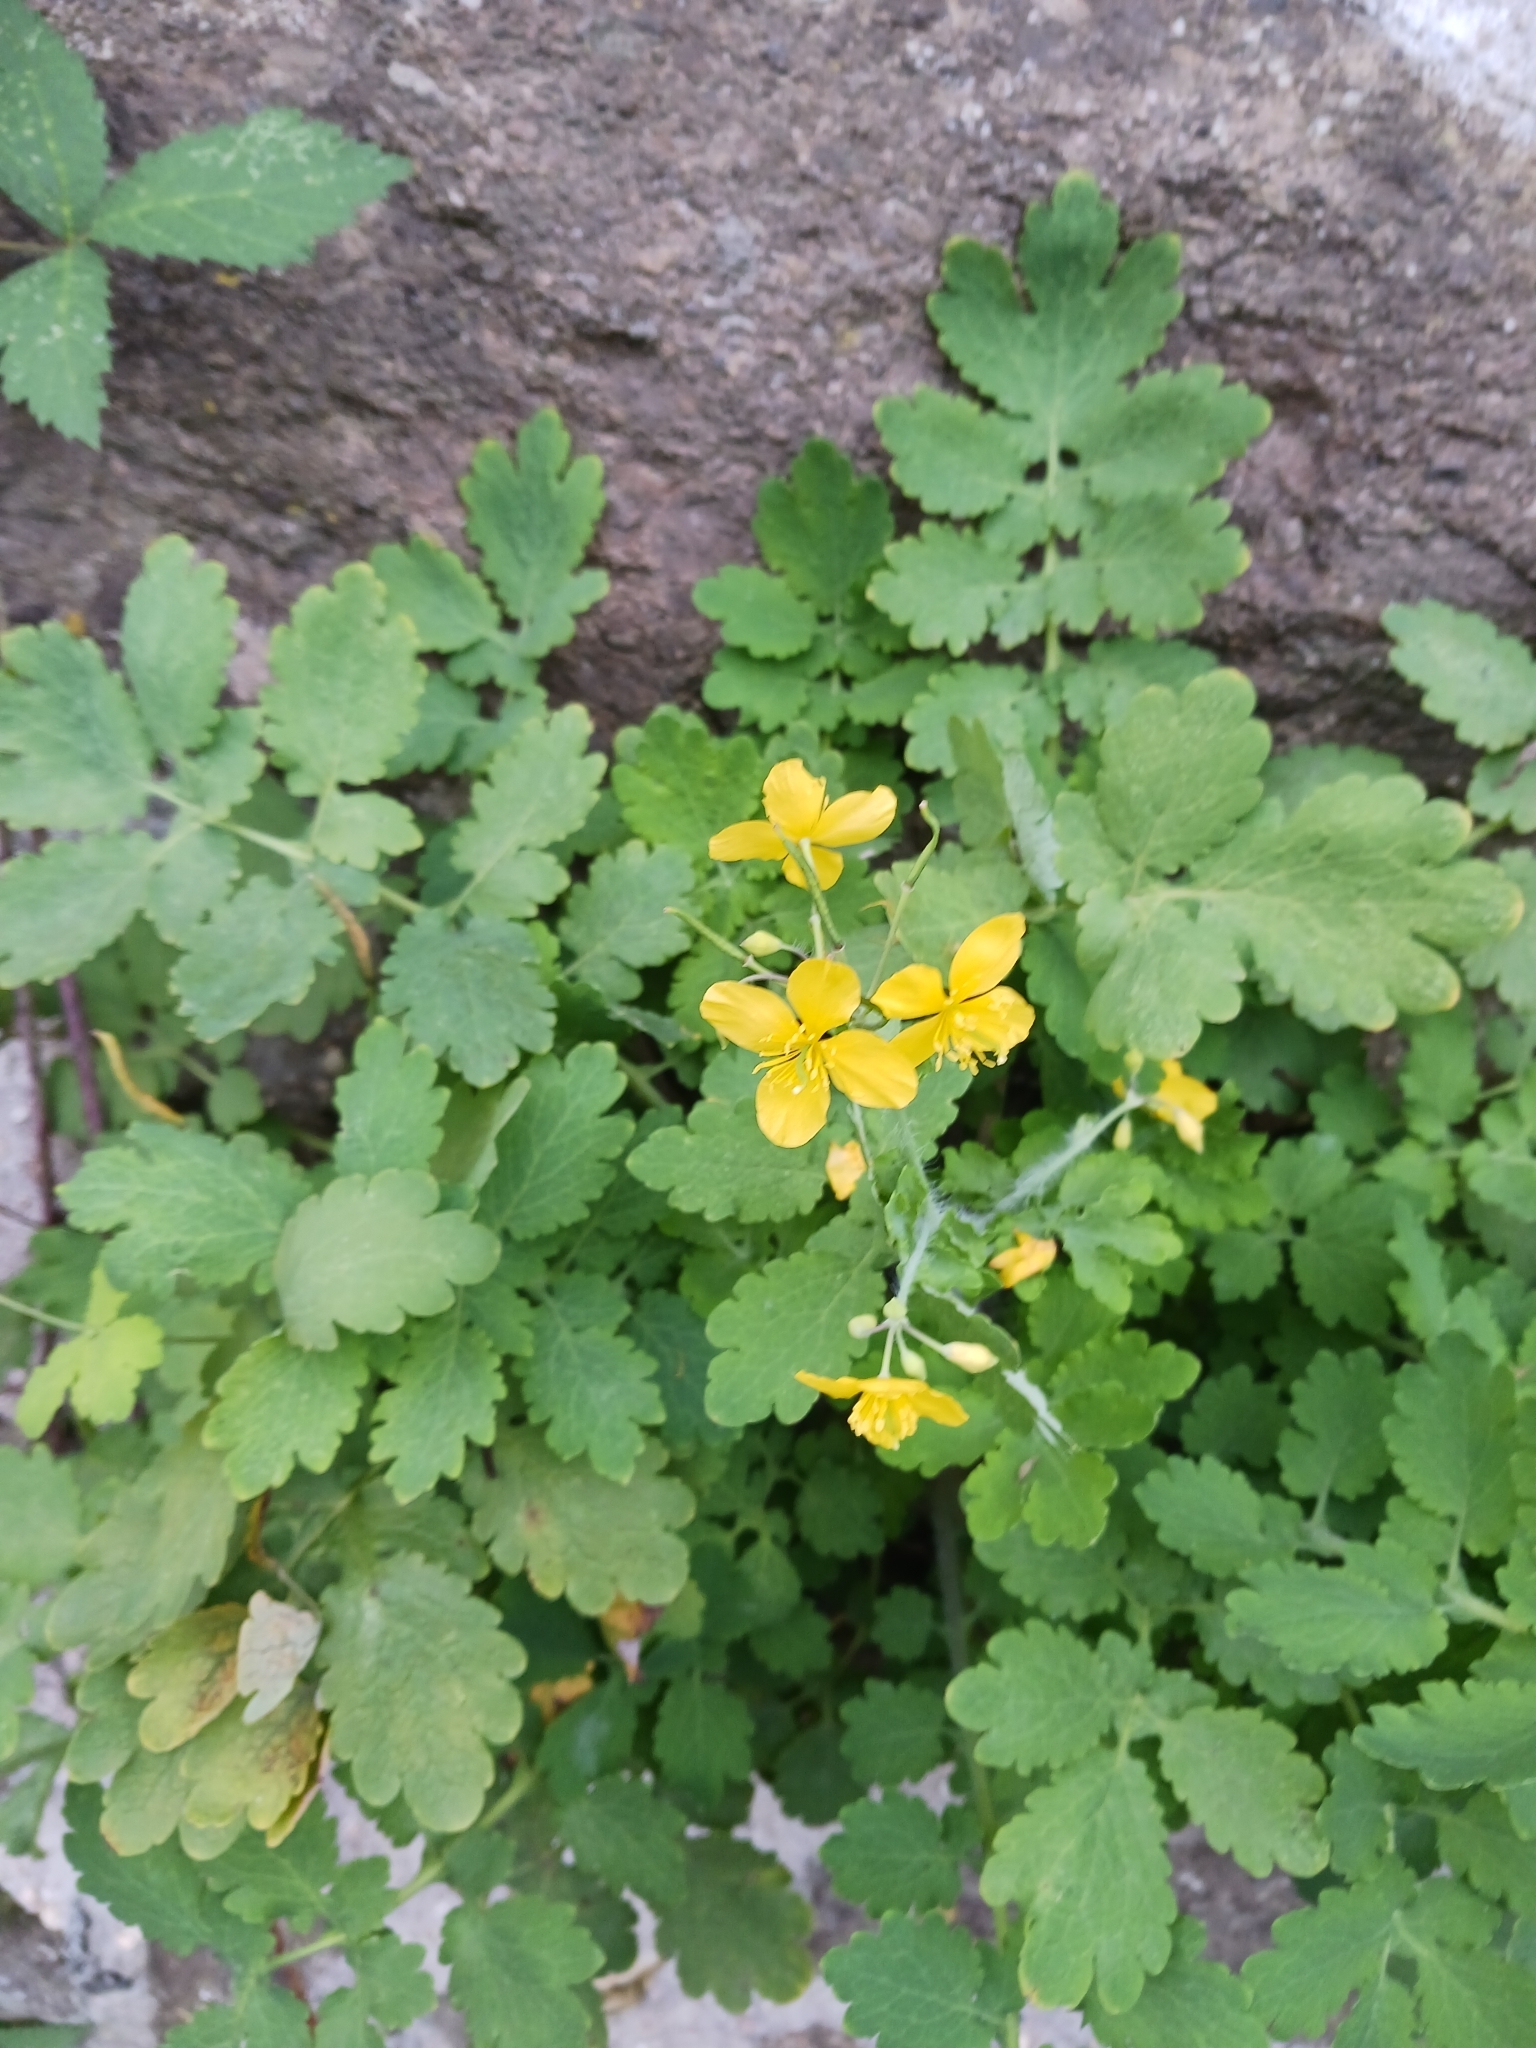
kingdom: Plantae
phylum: Tracheophyta
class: Magnoliopsida
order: Ranunculales
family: Papaveraceae
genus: Chelidonium
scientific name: Chelidonium majus
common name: Greater celandine
